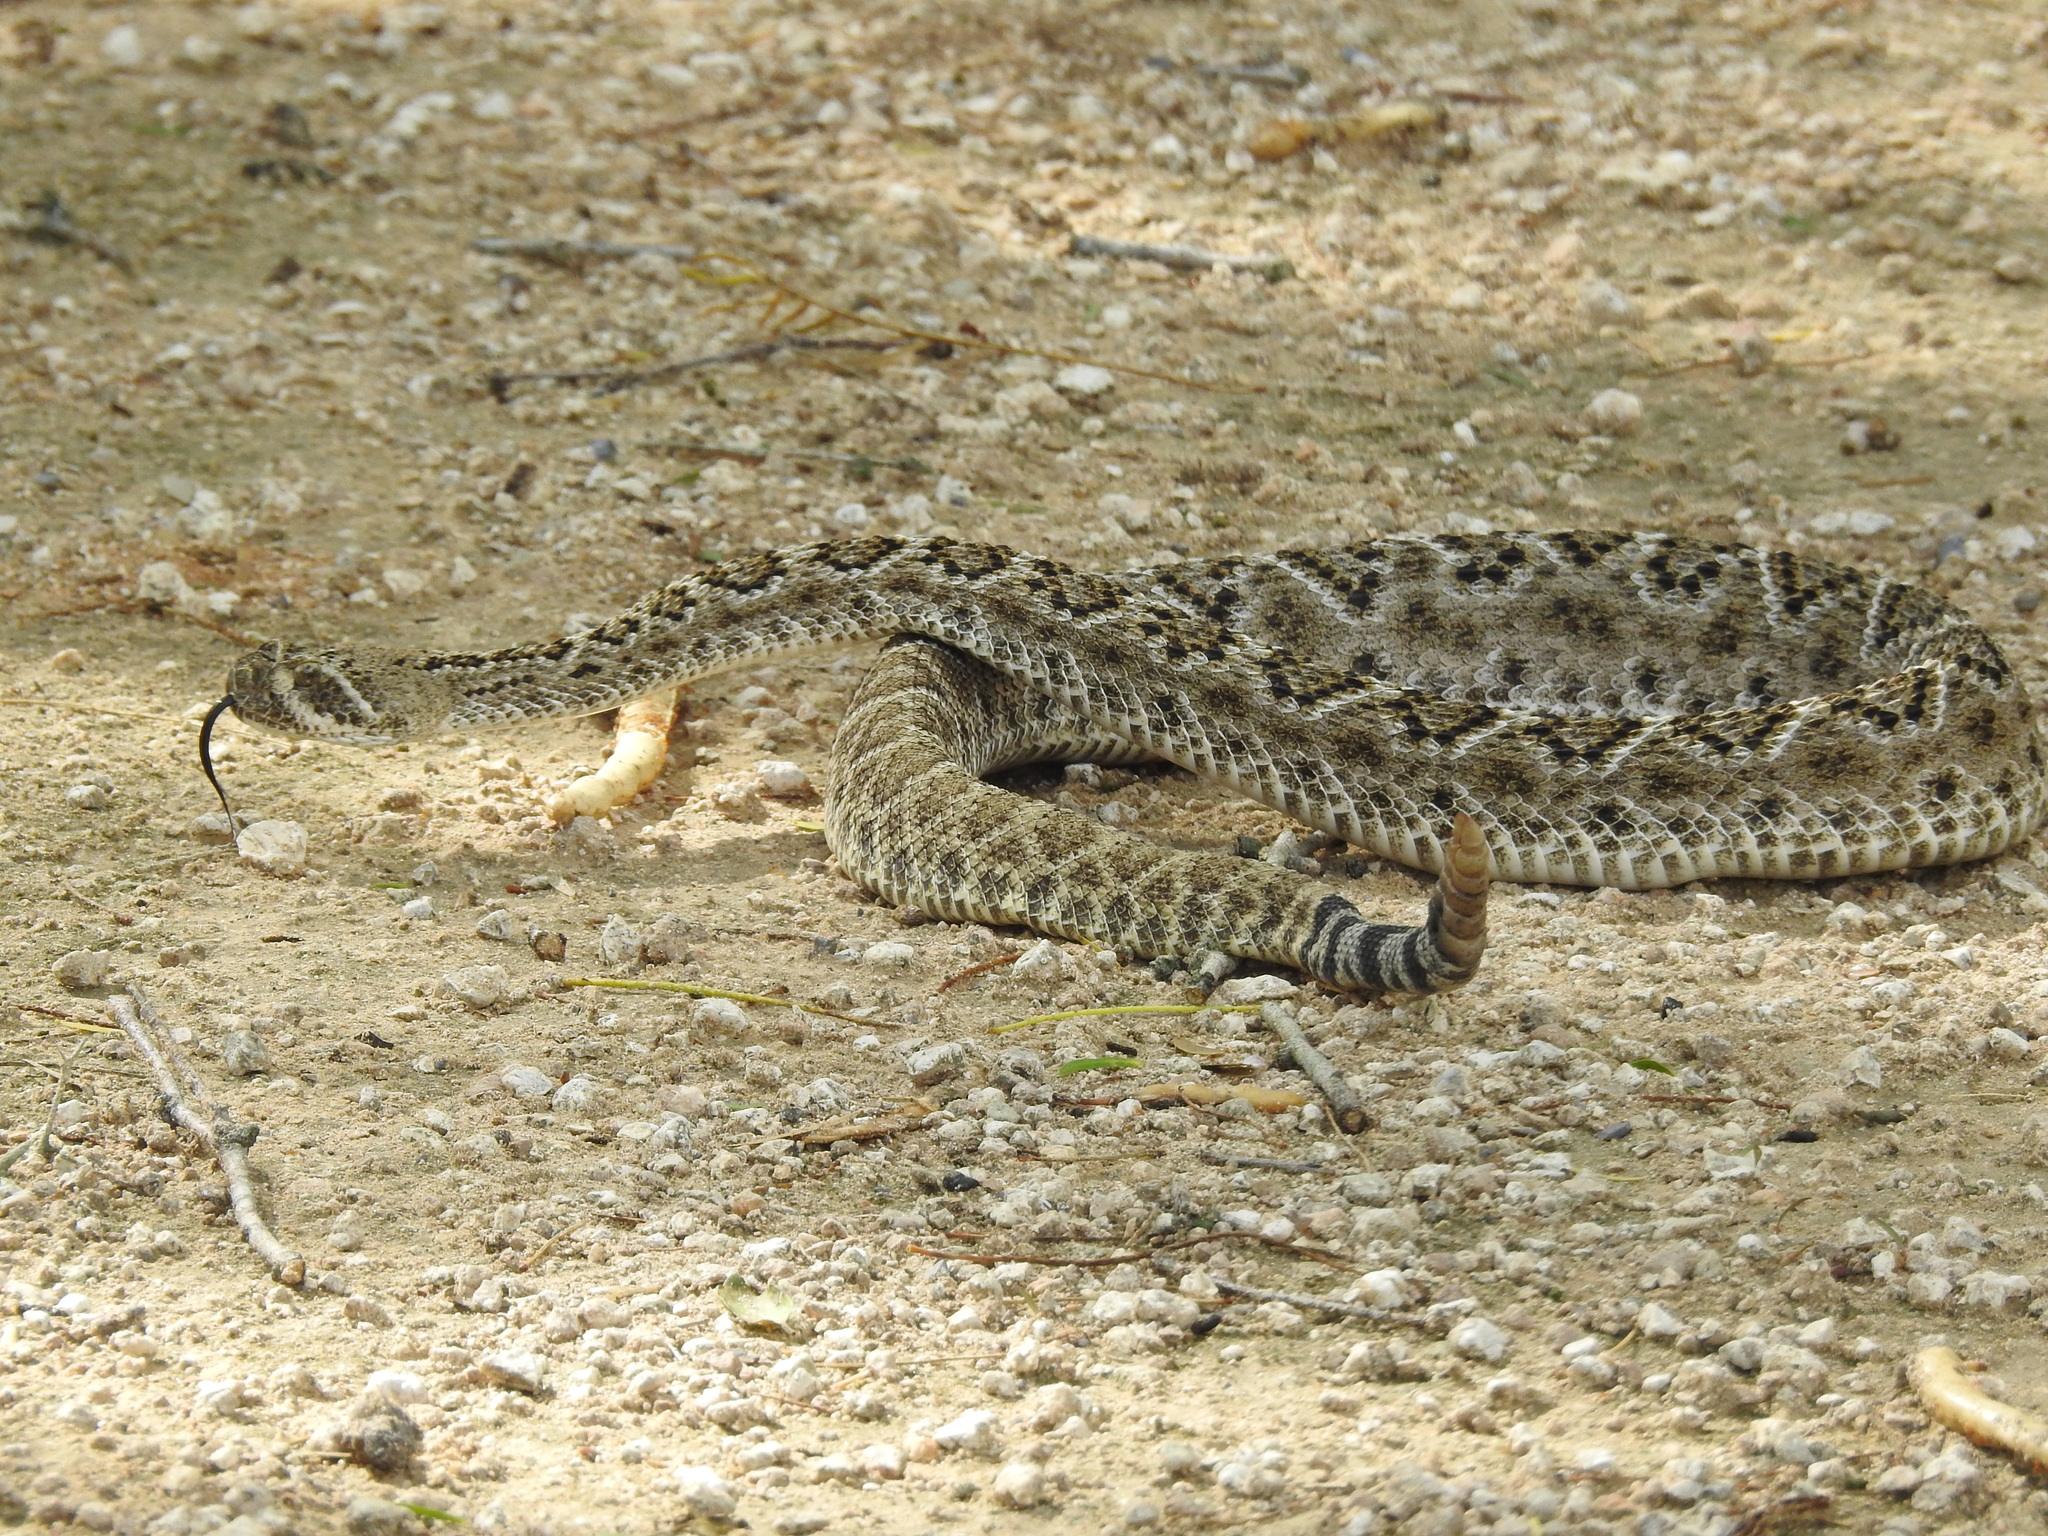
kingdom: Animalia
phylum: Chordata
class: Squamata
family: Viperidae
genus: Crotalus
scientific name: Crotalus atrox
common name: Western diamond-backed rattlesnake
